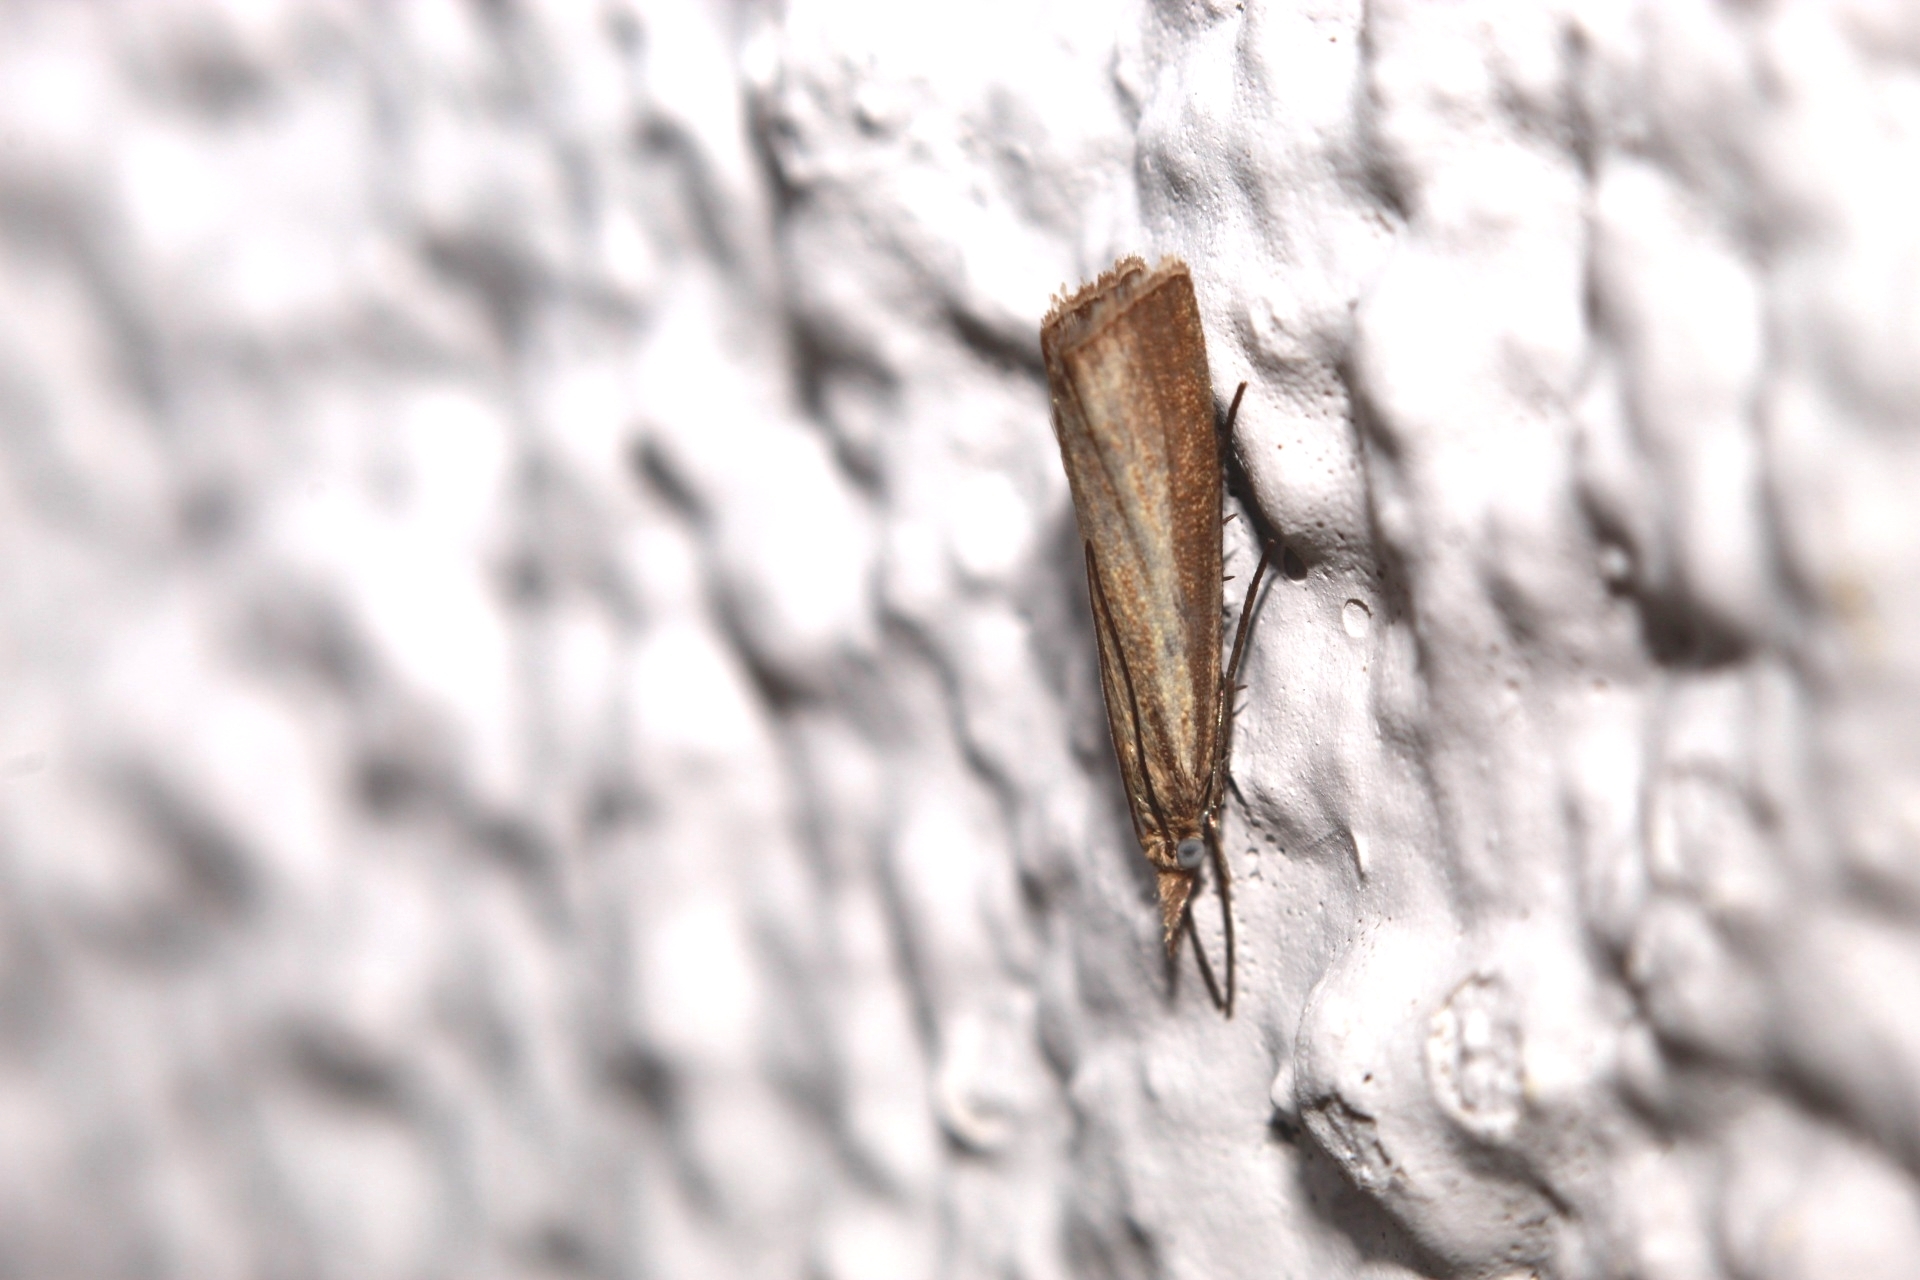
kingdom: Animalia
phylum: Arthropoda
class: Insecta
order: Lepidoptera
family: Crambidae
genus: Agriphila
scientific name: Agriphila straminella
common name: Straw grass-veneer
